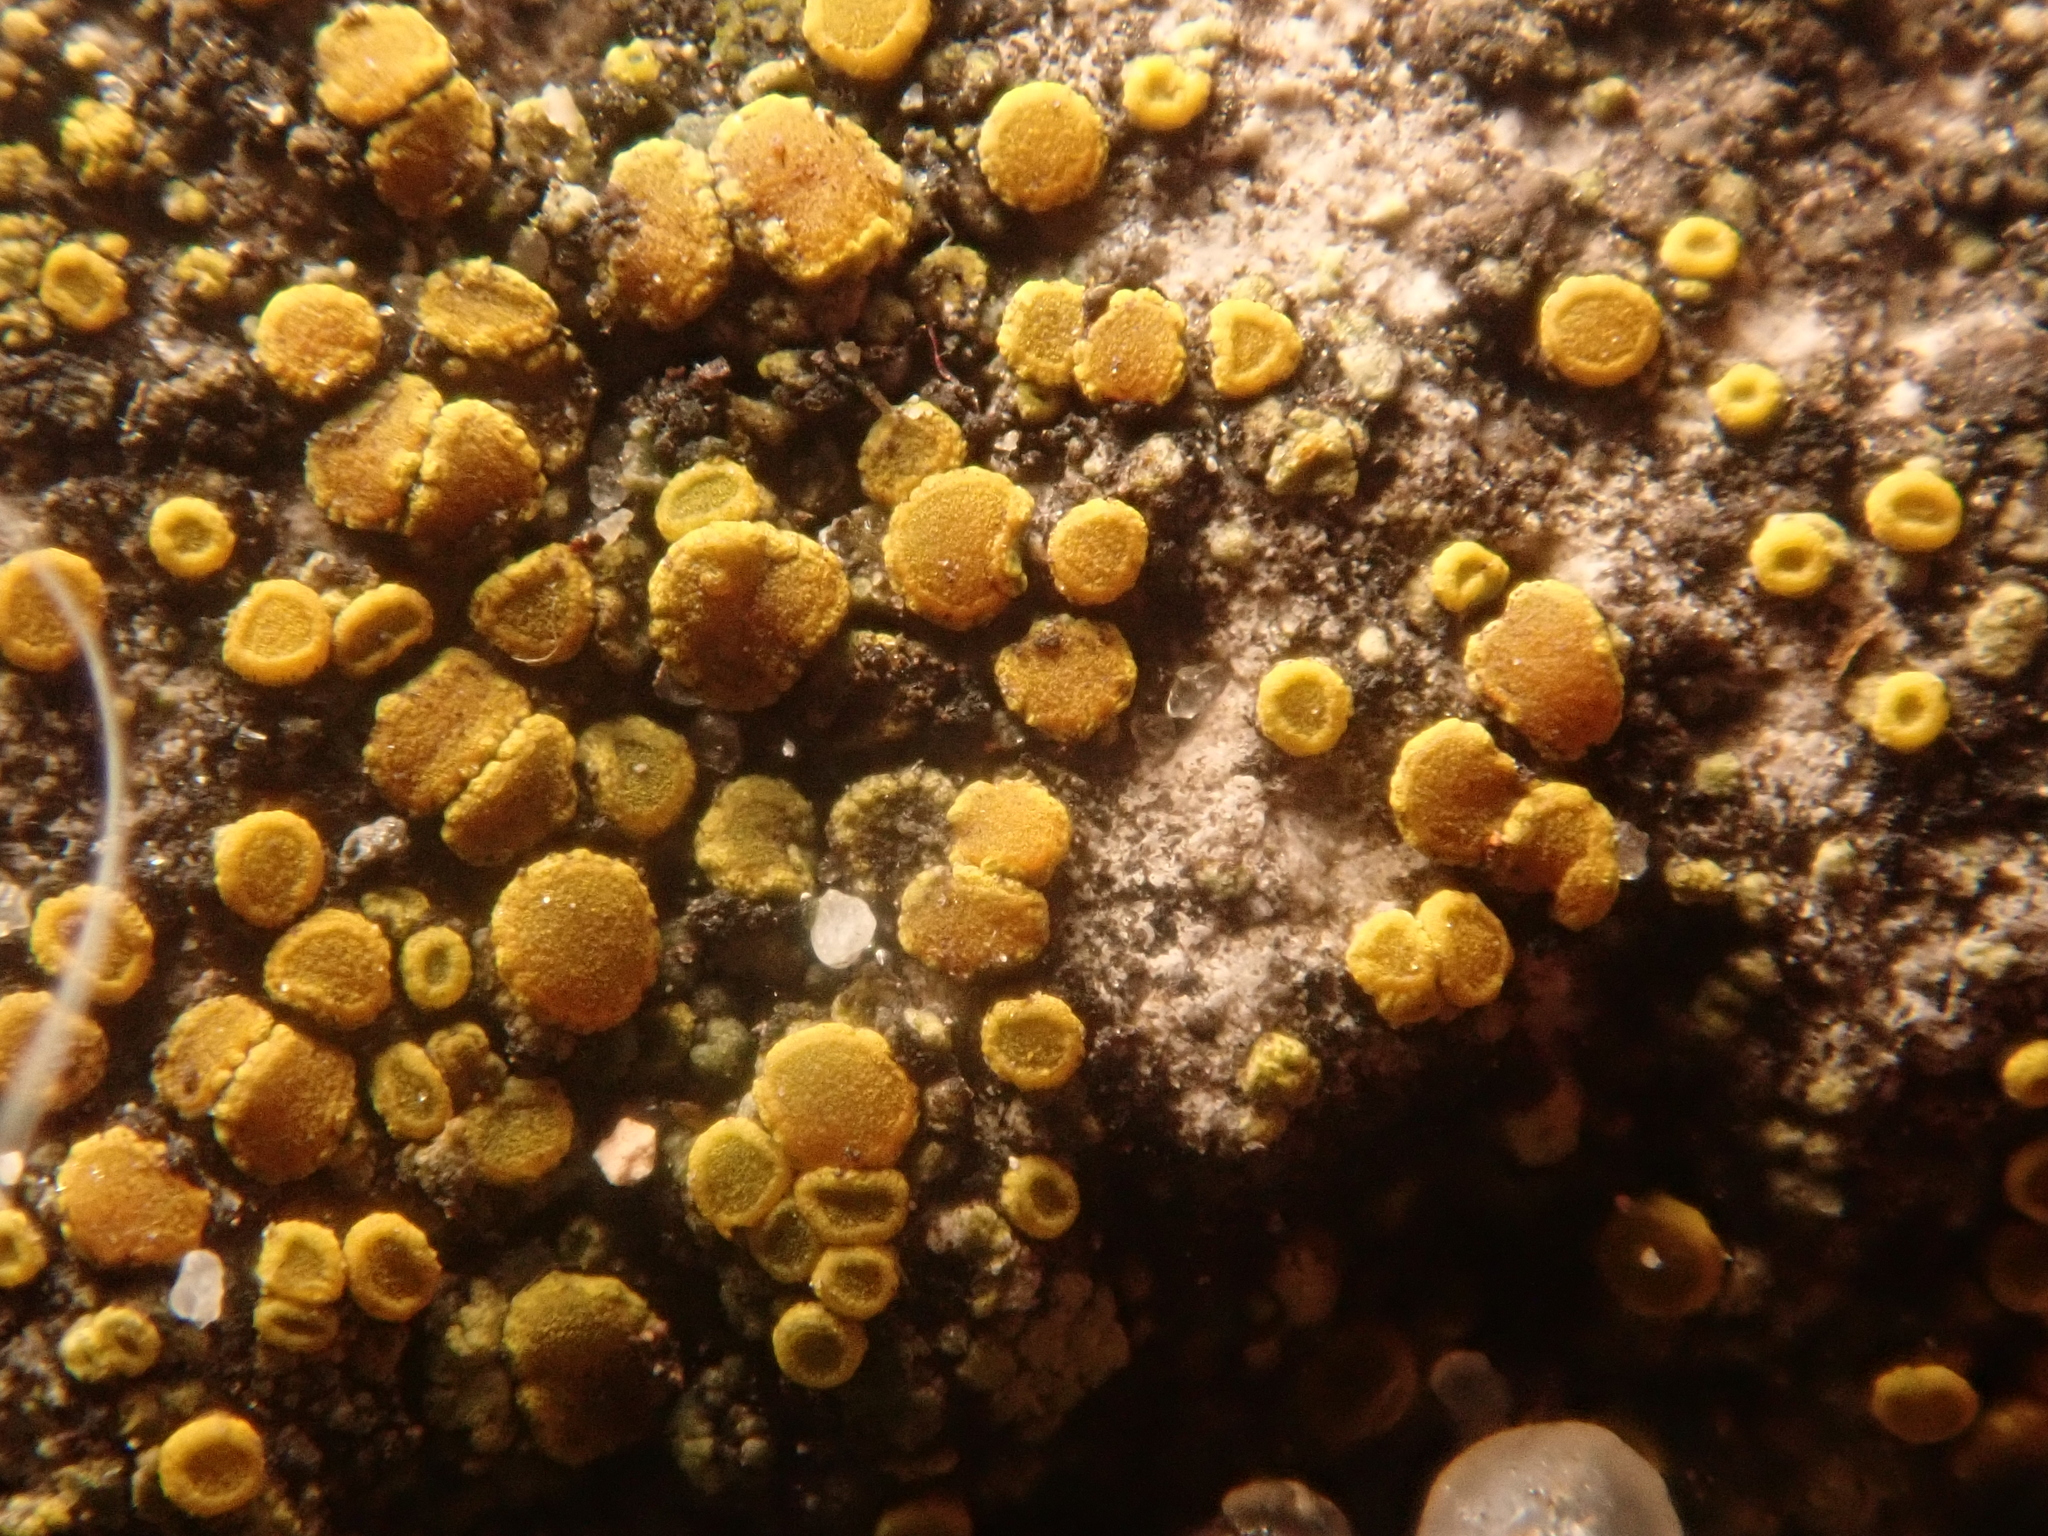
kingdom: Fungi
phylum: Ascomycota
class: Candelariomycetes
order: Candelariales
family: Candelariaceae
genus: Candelariella
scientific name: Candelariella vitellina
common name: Common goldspeck
